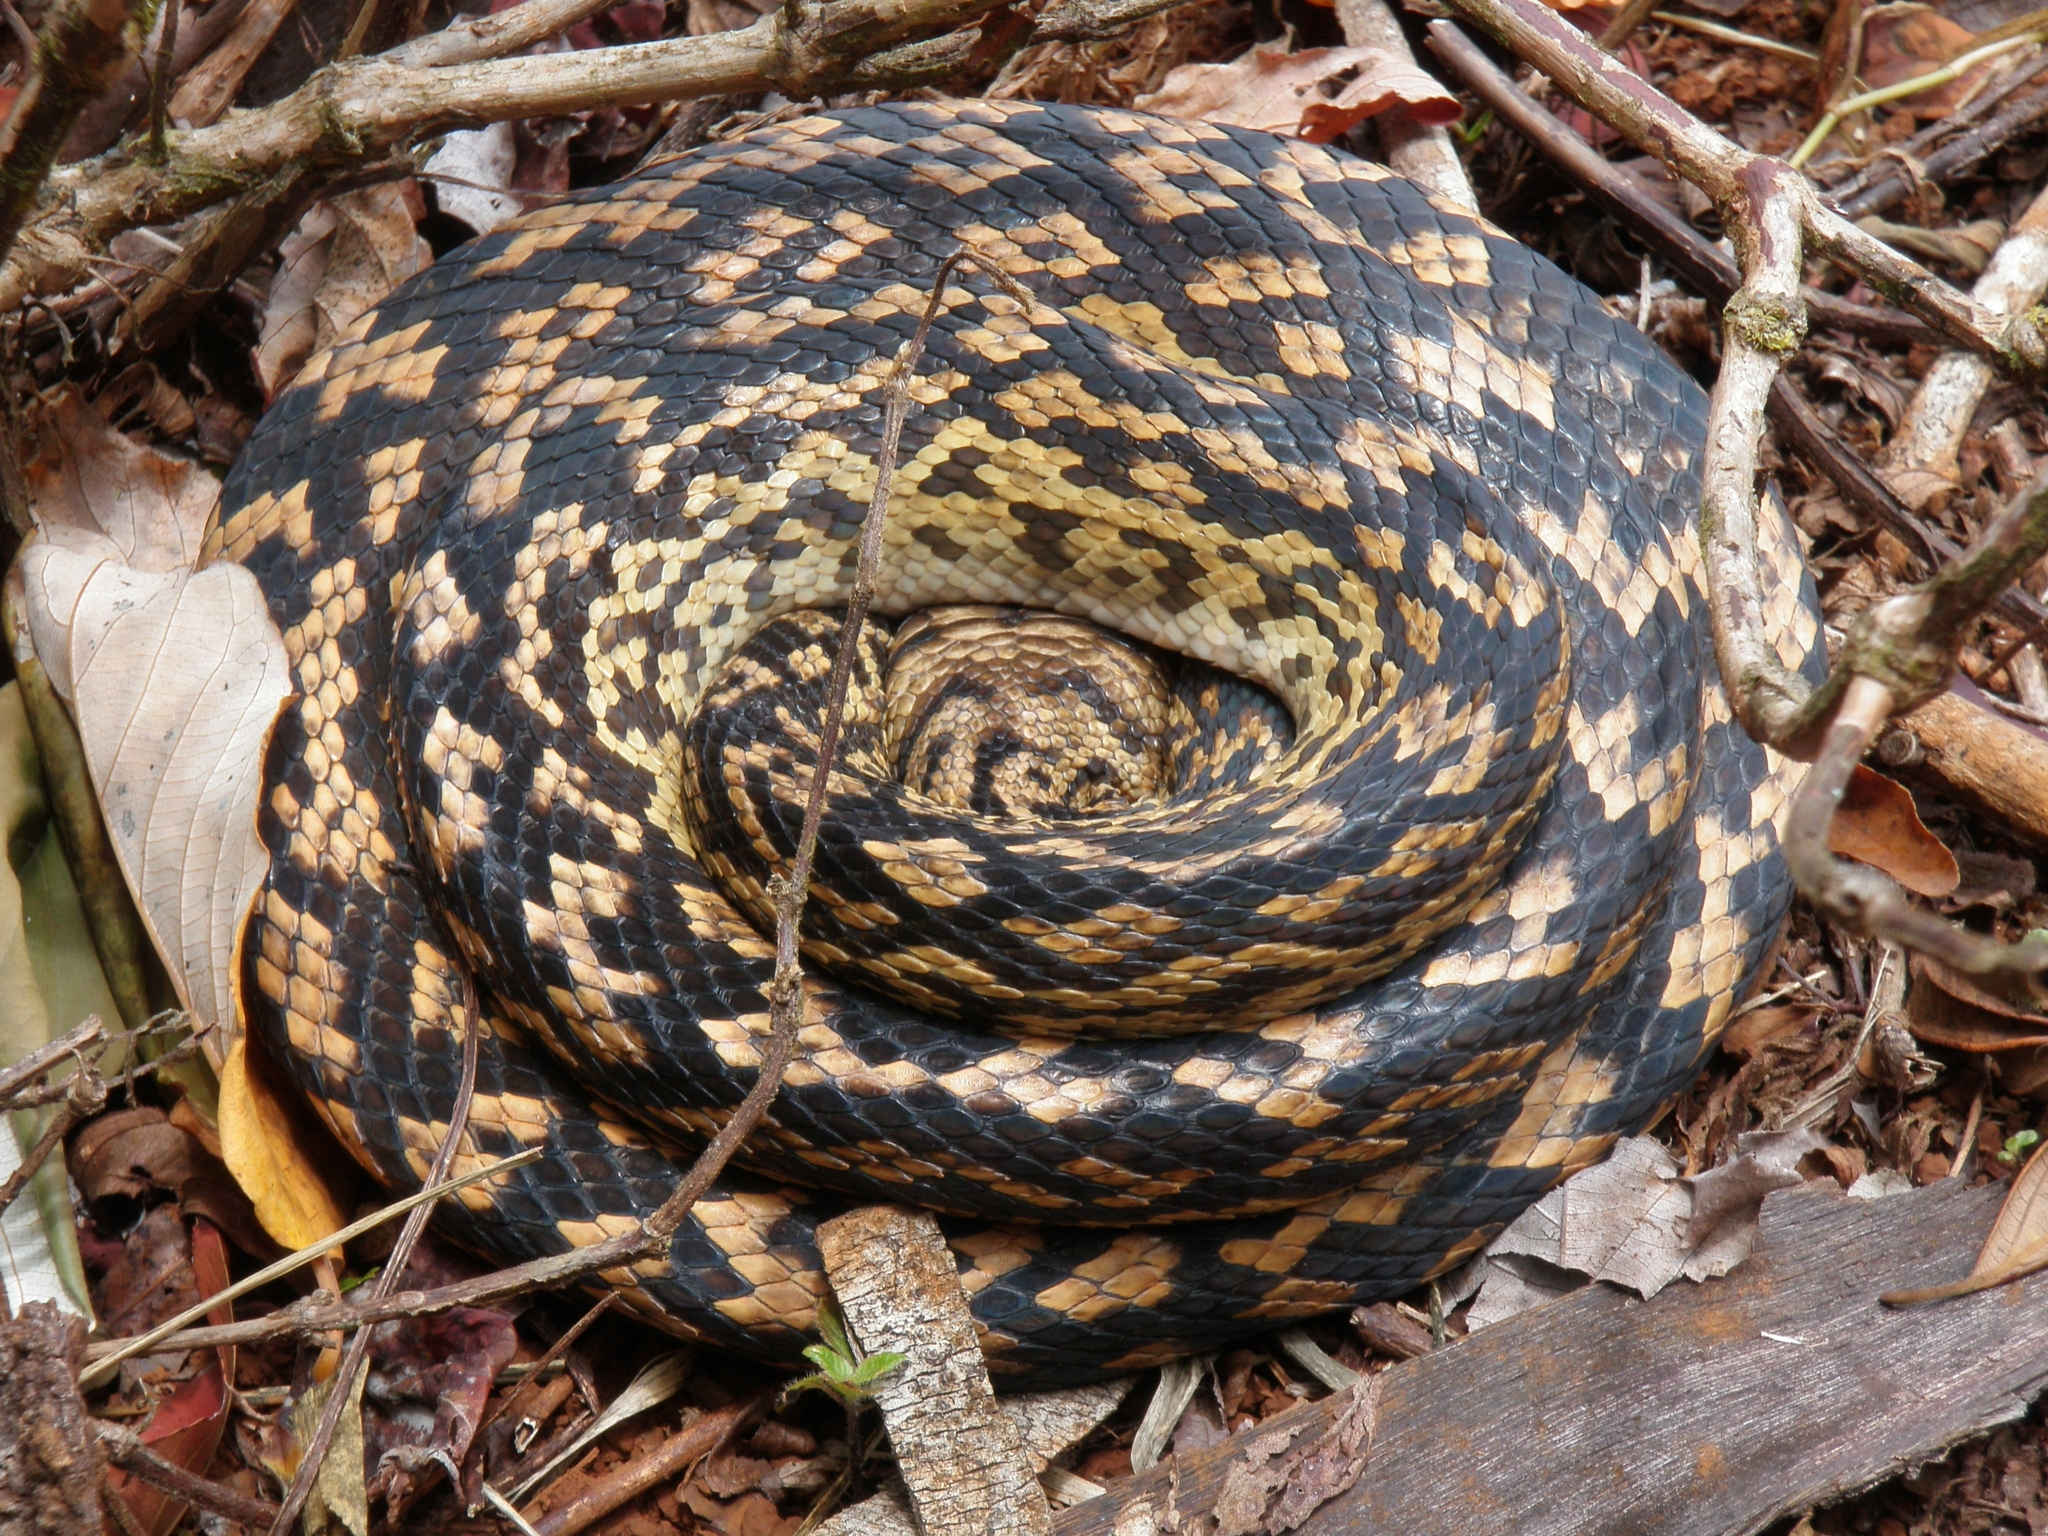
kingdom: Animalia
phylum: Chordata
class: Squamata
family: Pythonidae
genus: Simalia
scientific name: Simalia kinghorni
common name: Scrub python
